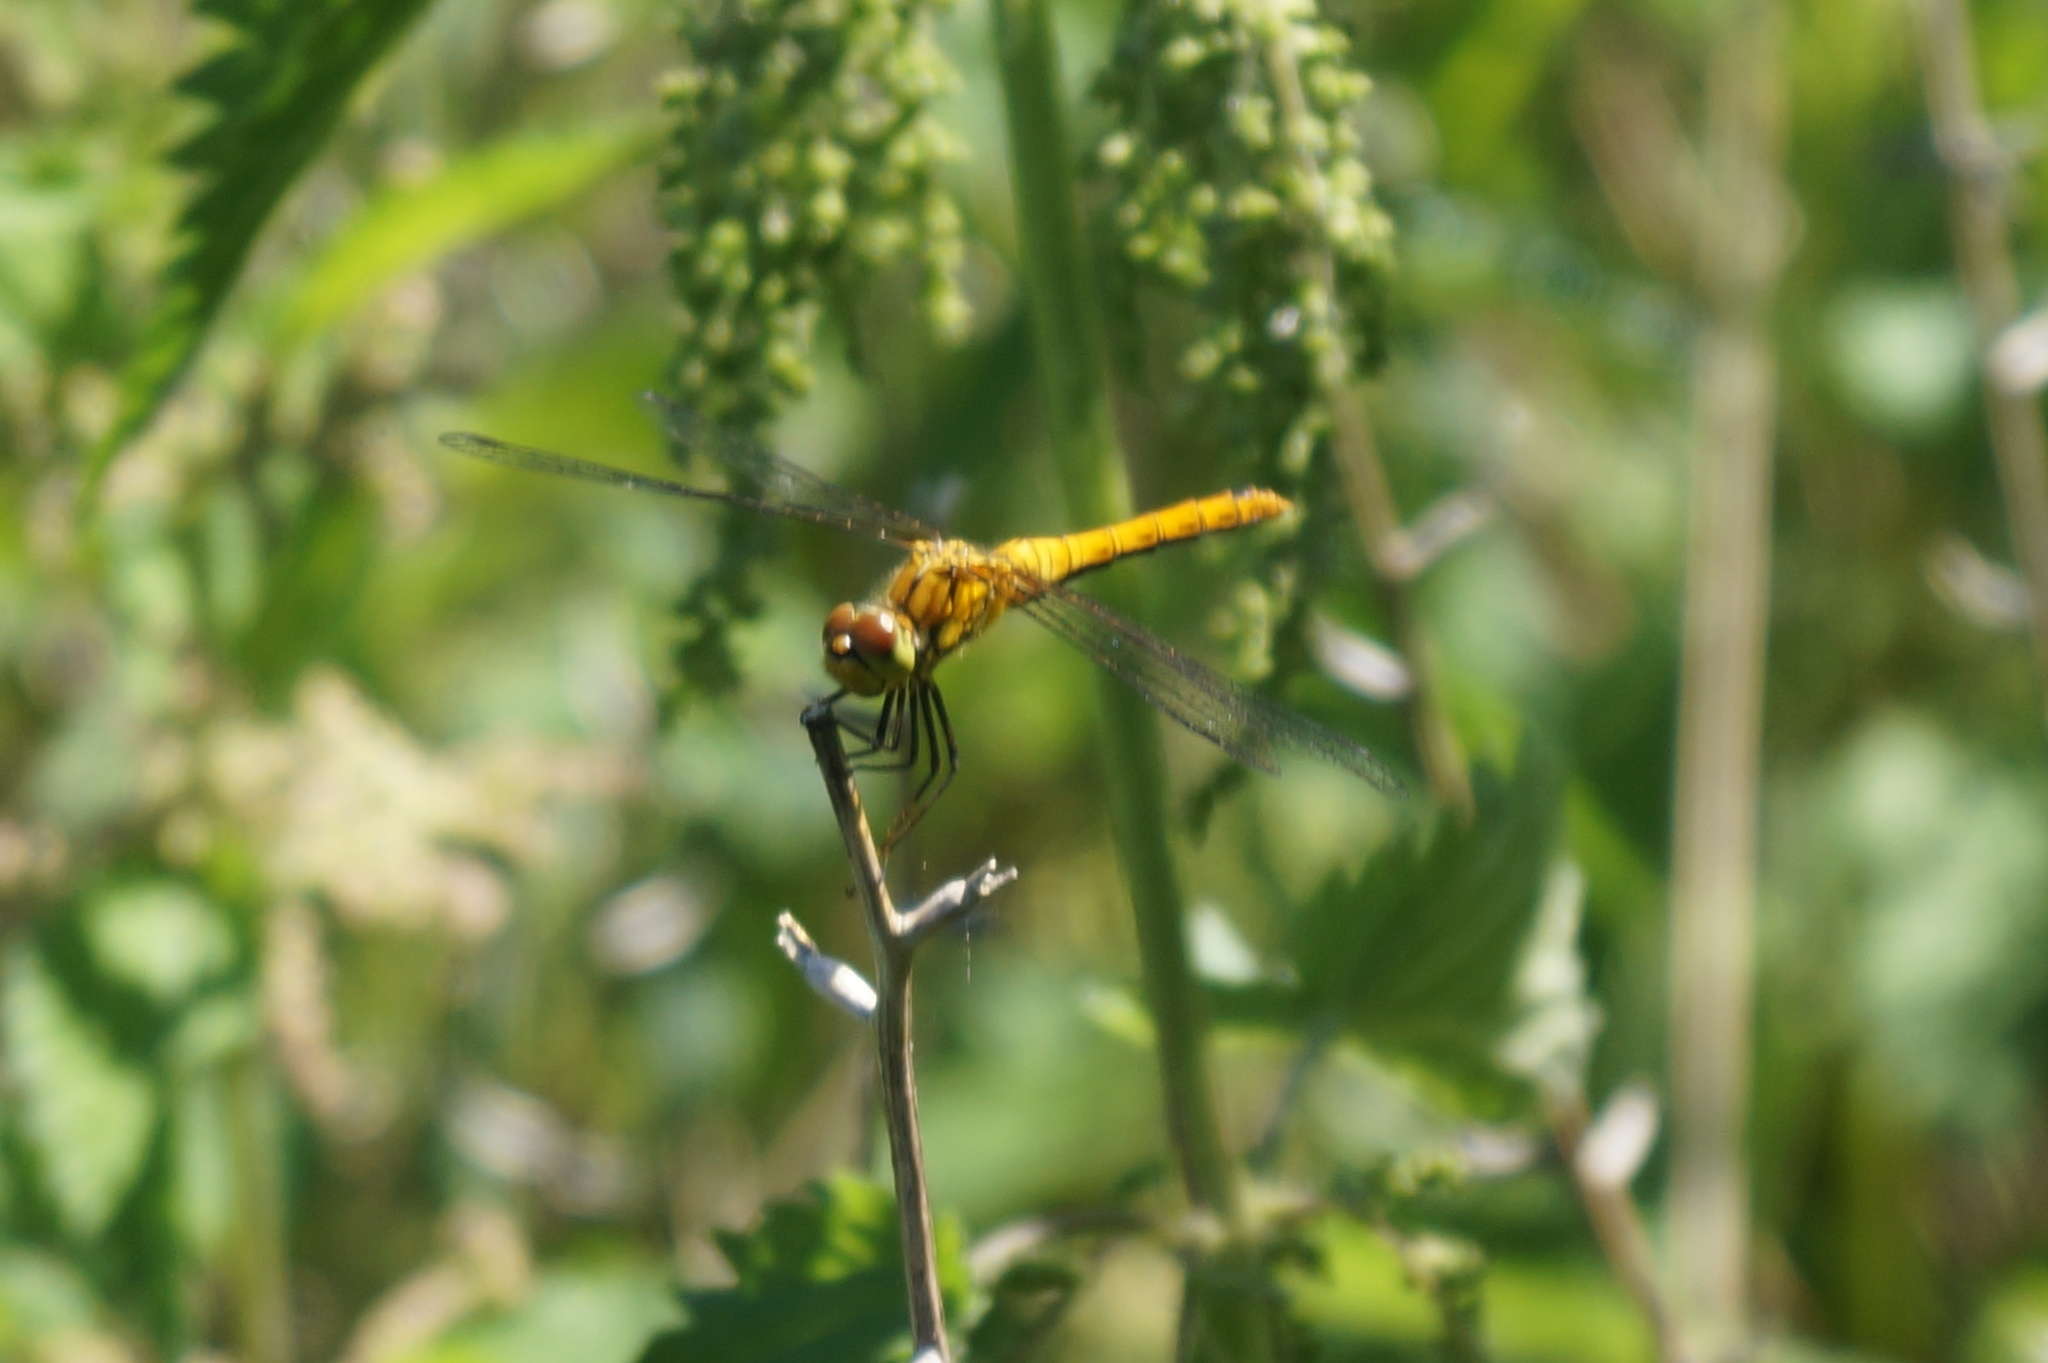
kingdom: Animalia
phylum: Arthropoda
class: Insecta
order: Odonata
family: Libellulidae
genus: Sympetrum
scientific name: Sympetrum sanguineum
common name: Ruddy darter
